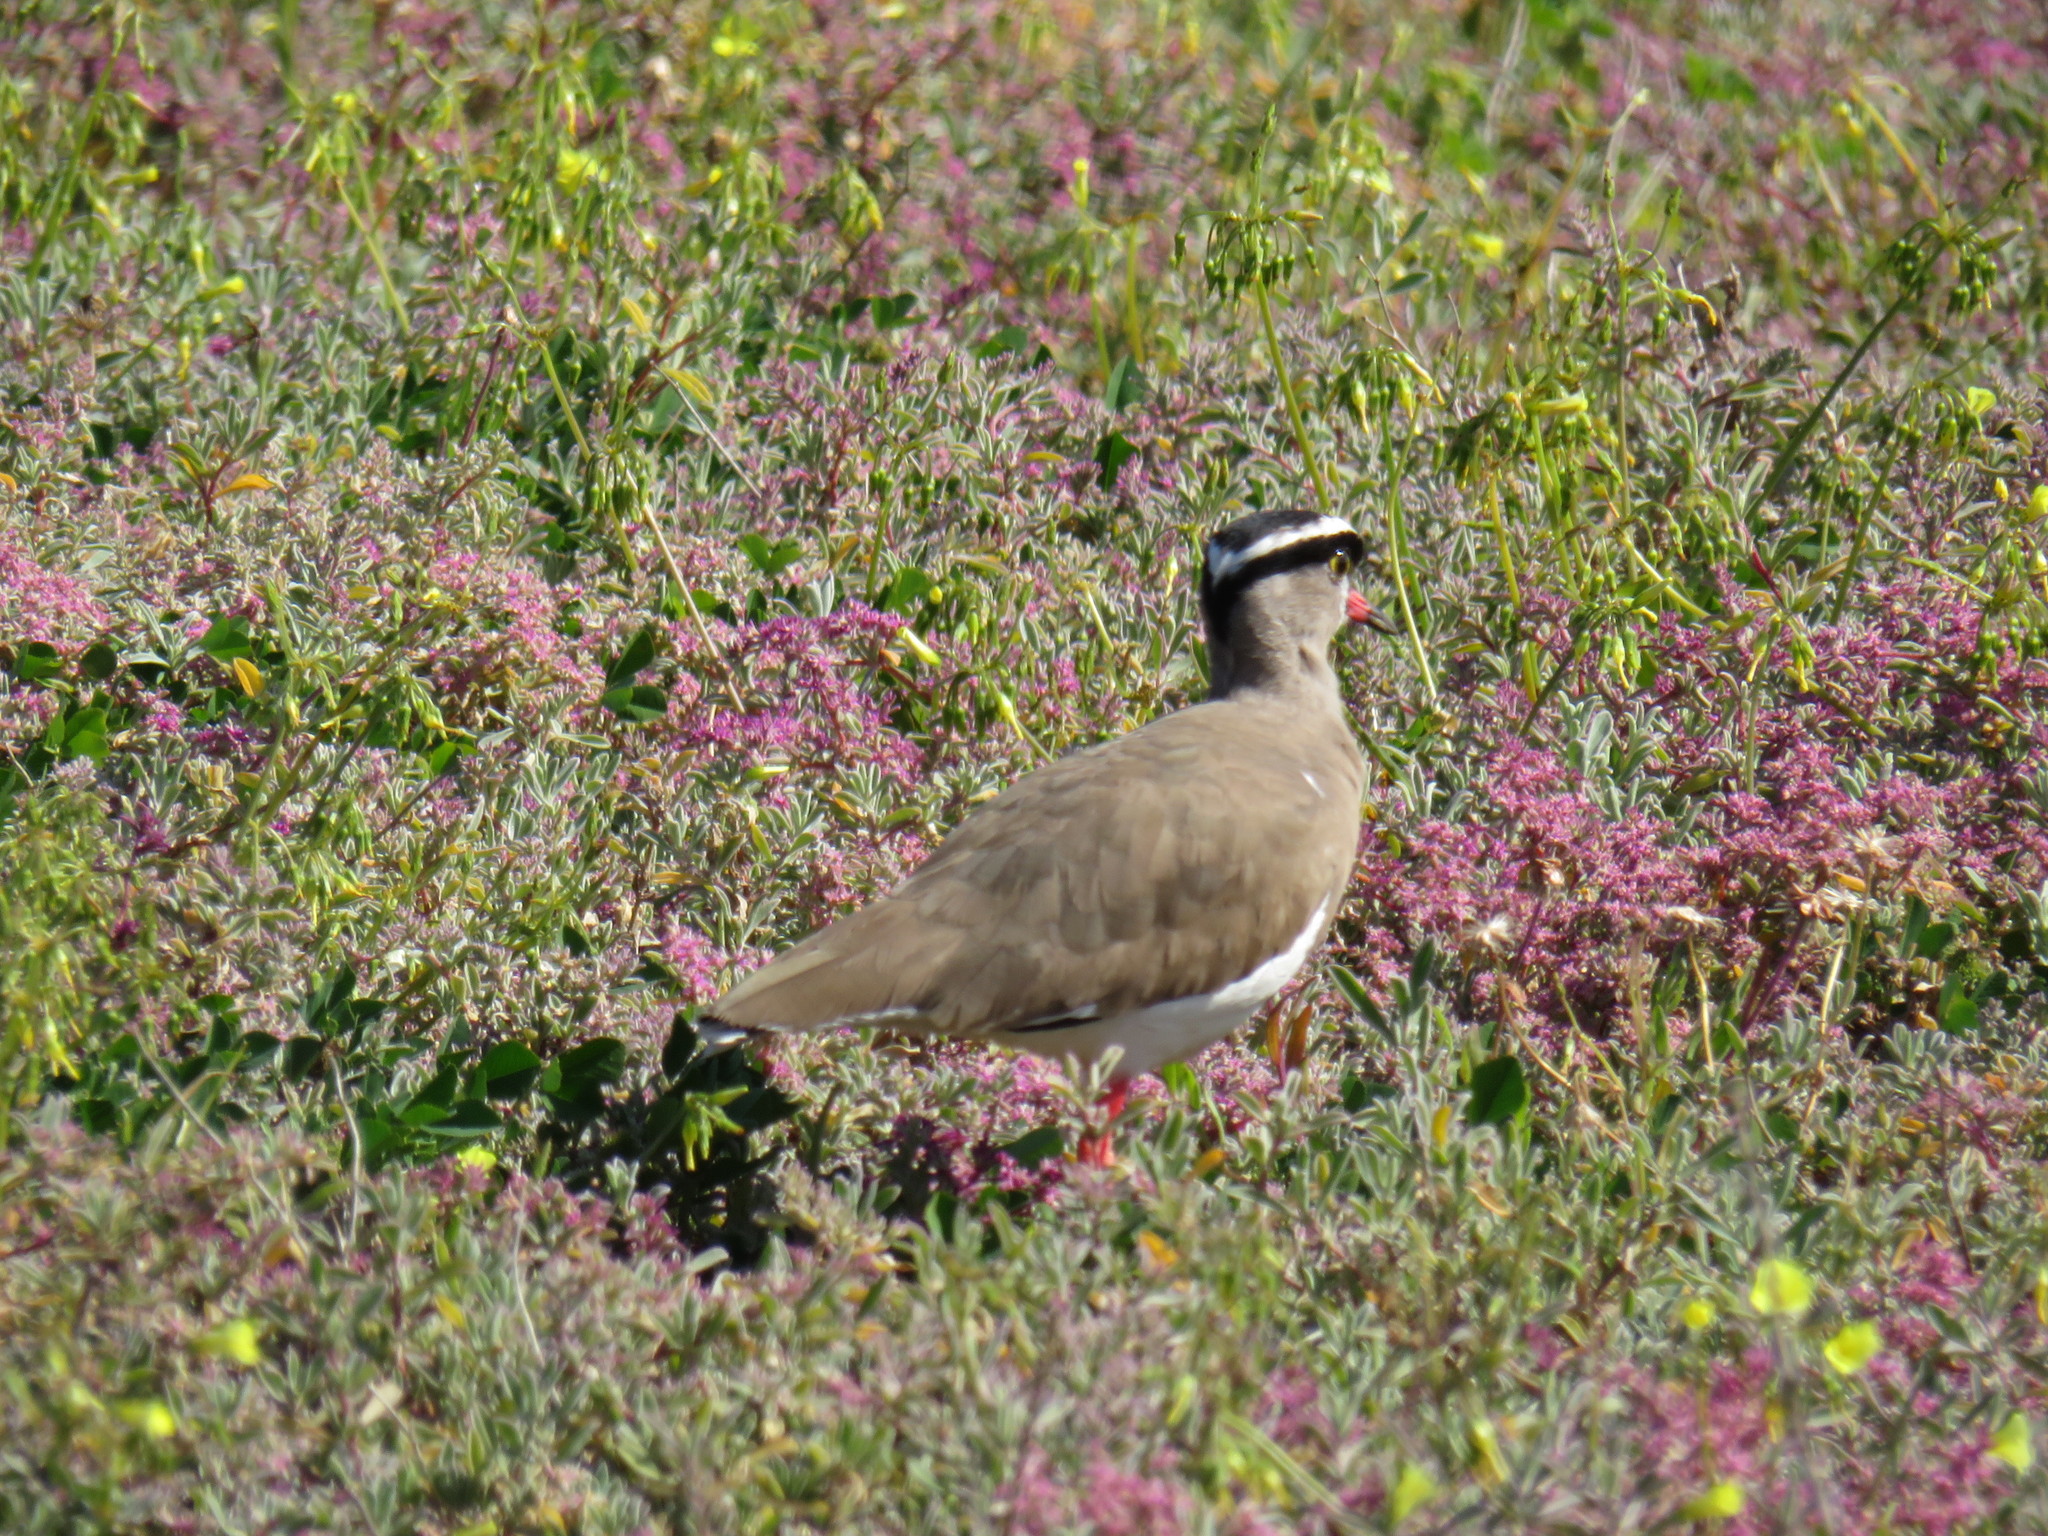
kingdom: Animalia
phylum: Chordata
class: Aves
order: Charadriiformes
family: Charadriidae
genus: Vanellus
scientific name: Vanellus coronatus
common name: Crowned lapwing
